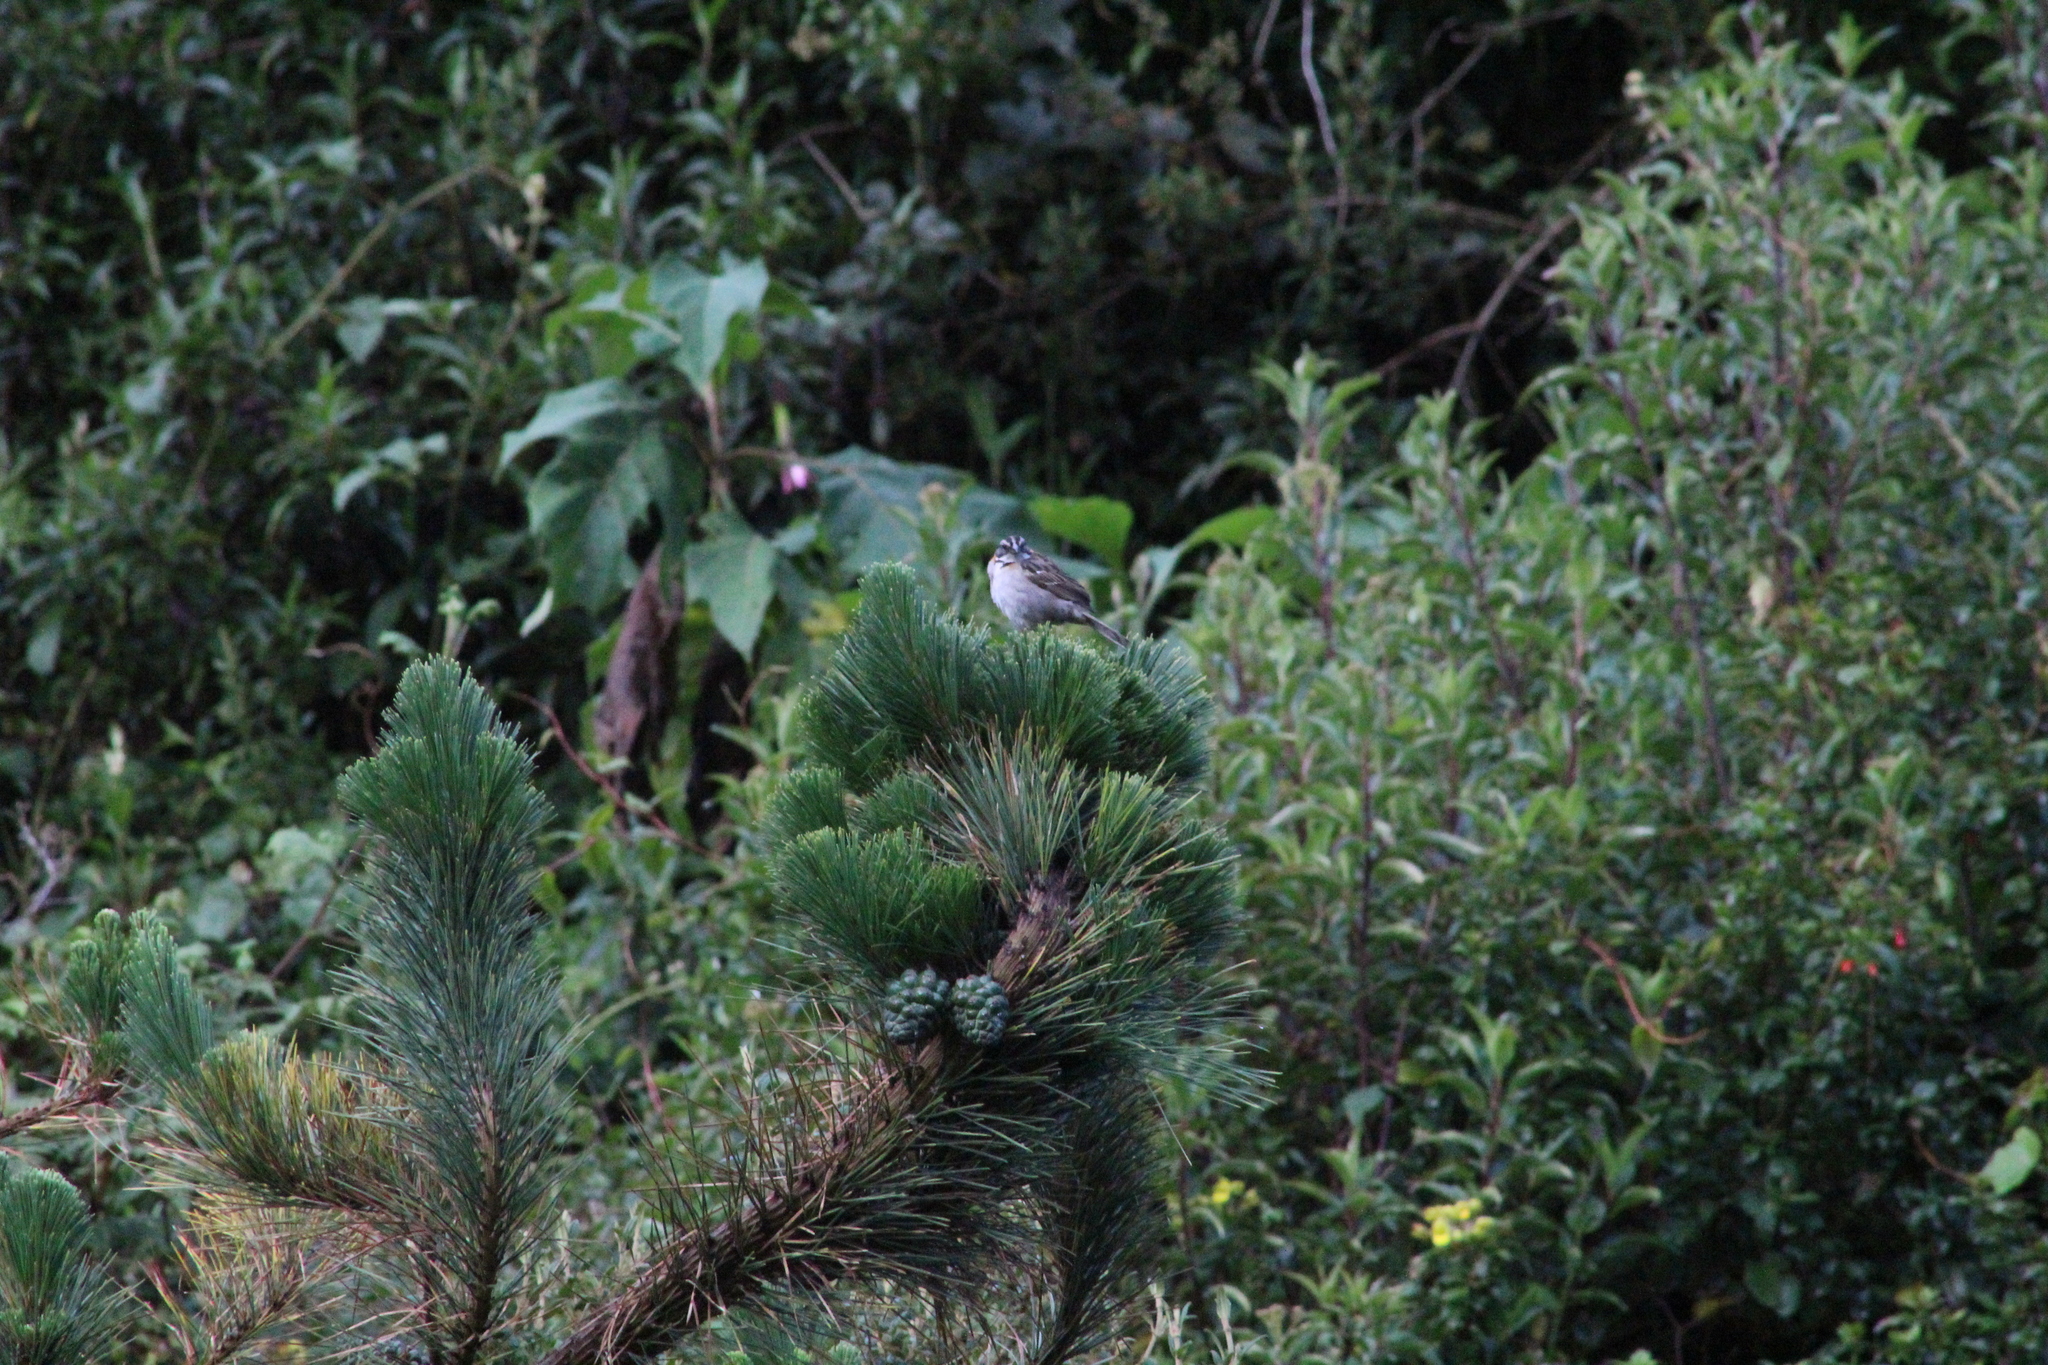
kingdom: Animalia
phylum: Chordata
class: Aves
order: Passeriformes
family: Passerellidae
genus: Zonotrichia
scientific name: Zonotrichia capensis
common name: Rufous-collared sparrow
